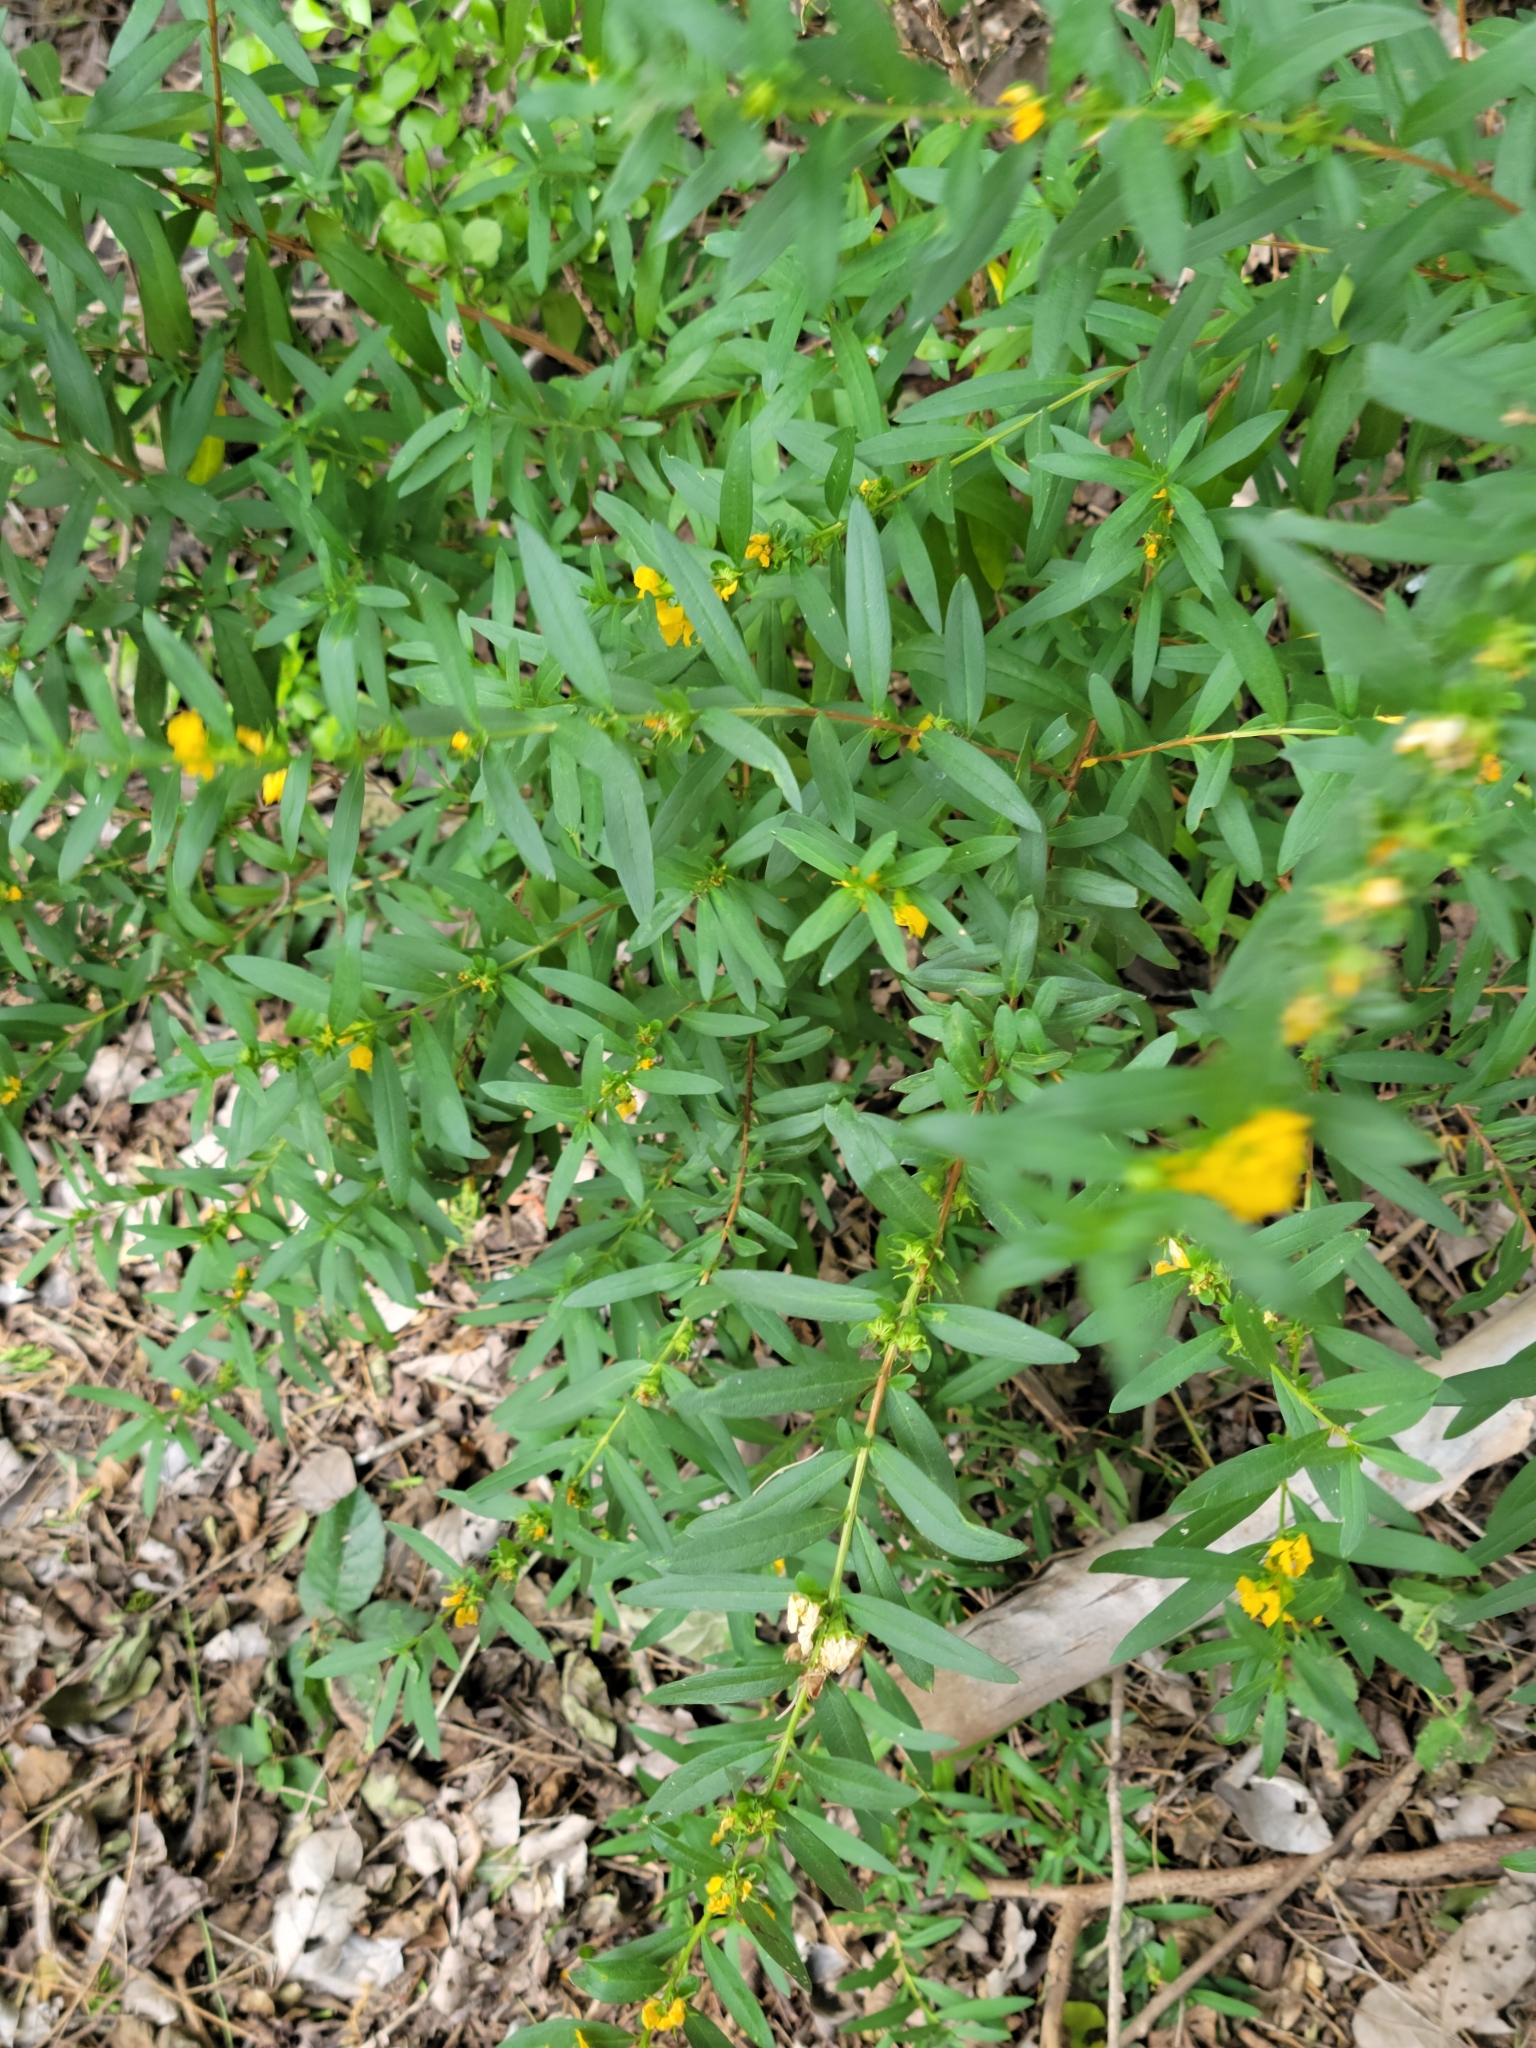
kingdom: Plantae
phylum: Tracheophyta
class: Magnoliopsida
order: Myrtales
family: Lythraceae
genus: Heimia
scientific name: Heimia salicifolia
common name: Willow-leaf heimia
